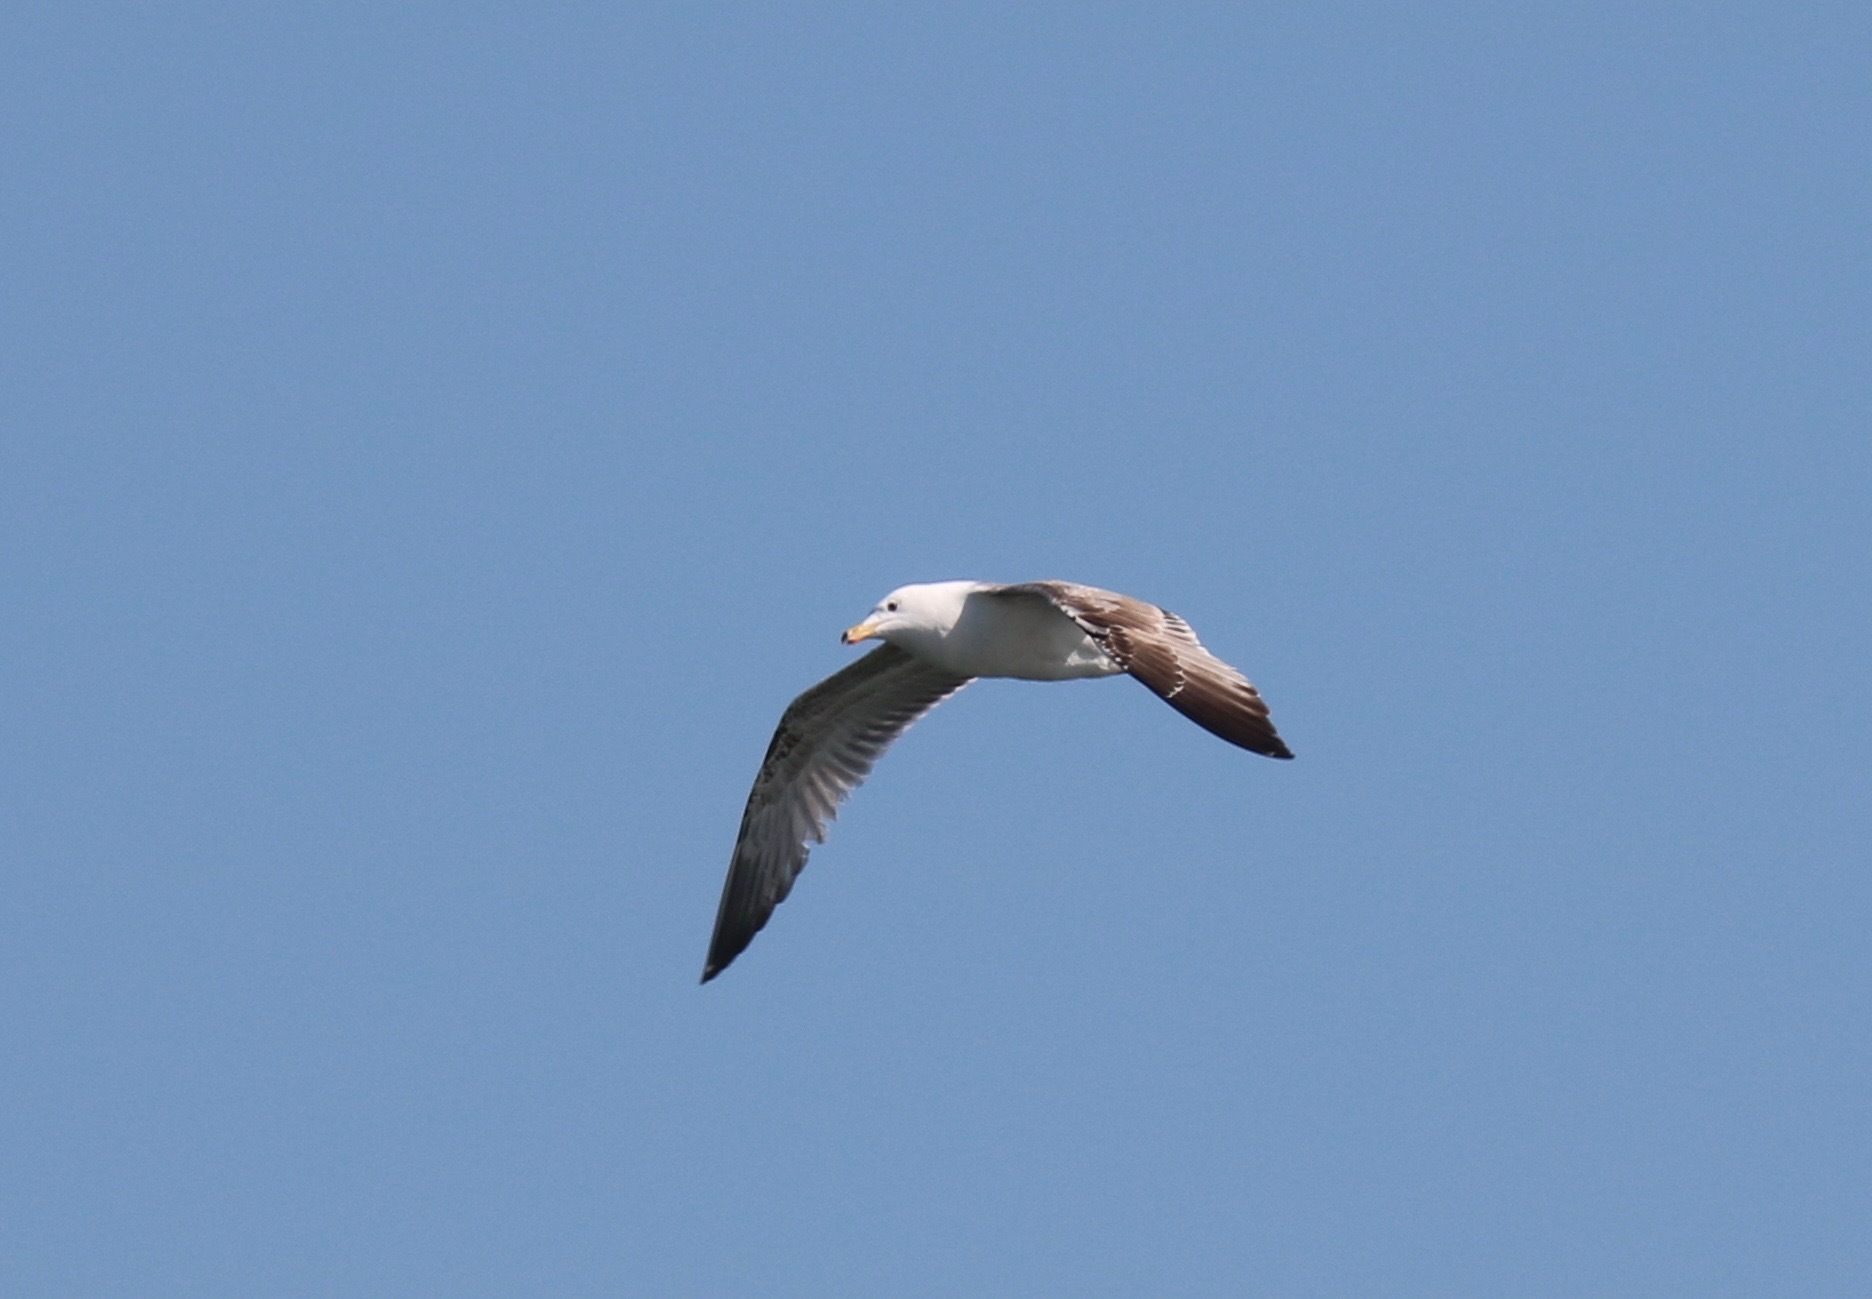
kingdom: Animalia
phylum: Chordata
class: Aves
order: Charadriiformes
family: Laridae
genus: Larus
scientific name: Larus michahellis
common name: Yellow-legged gull
